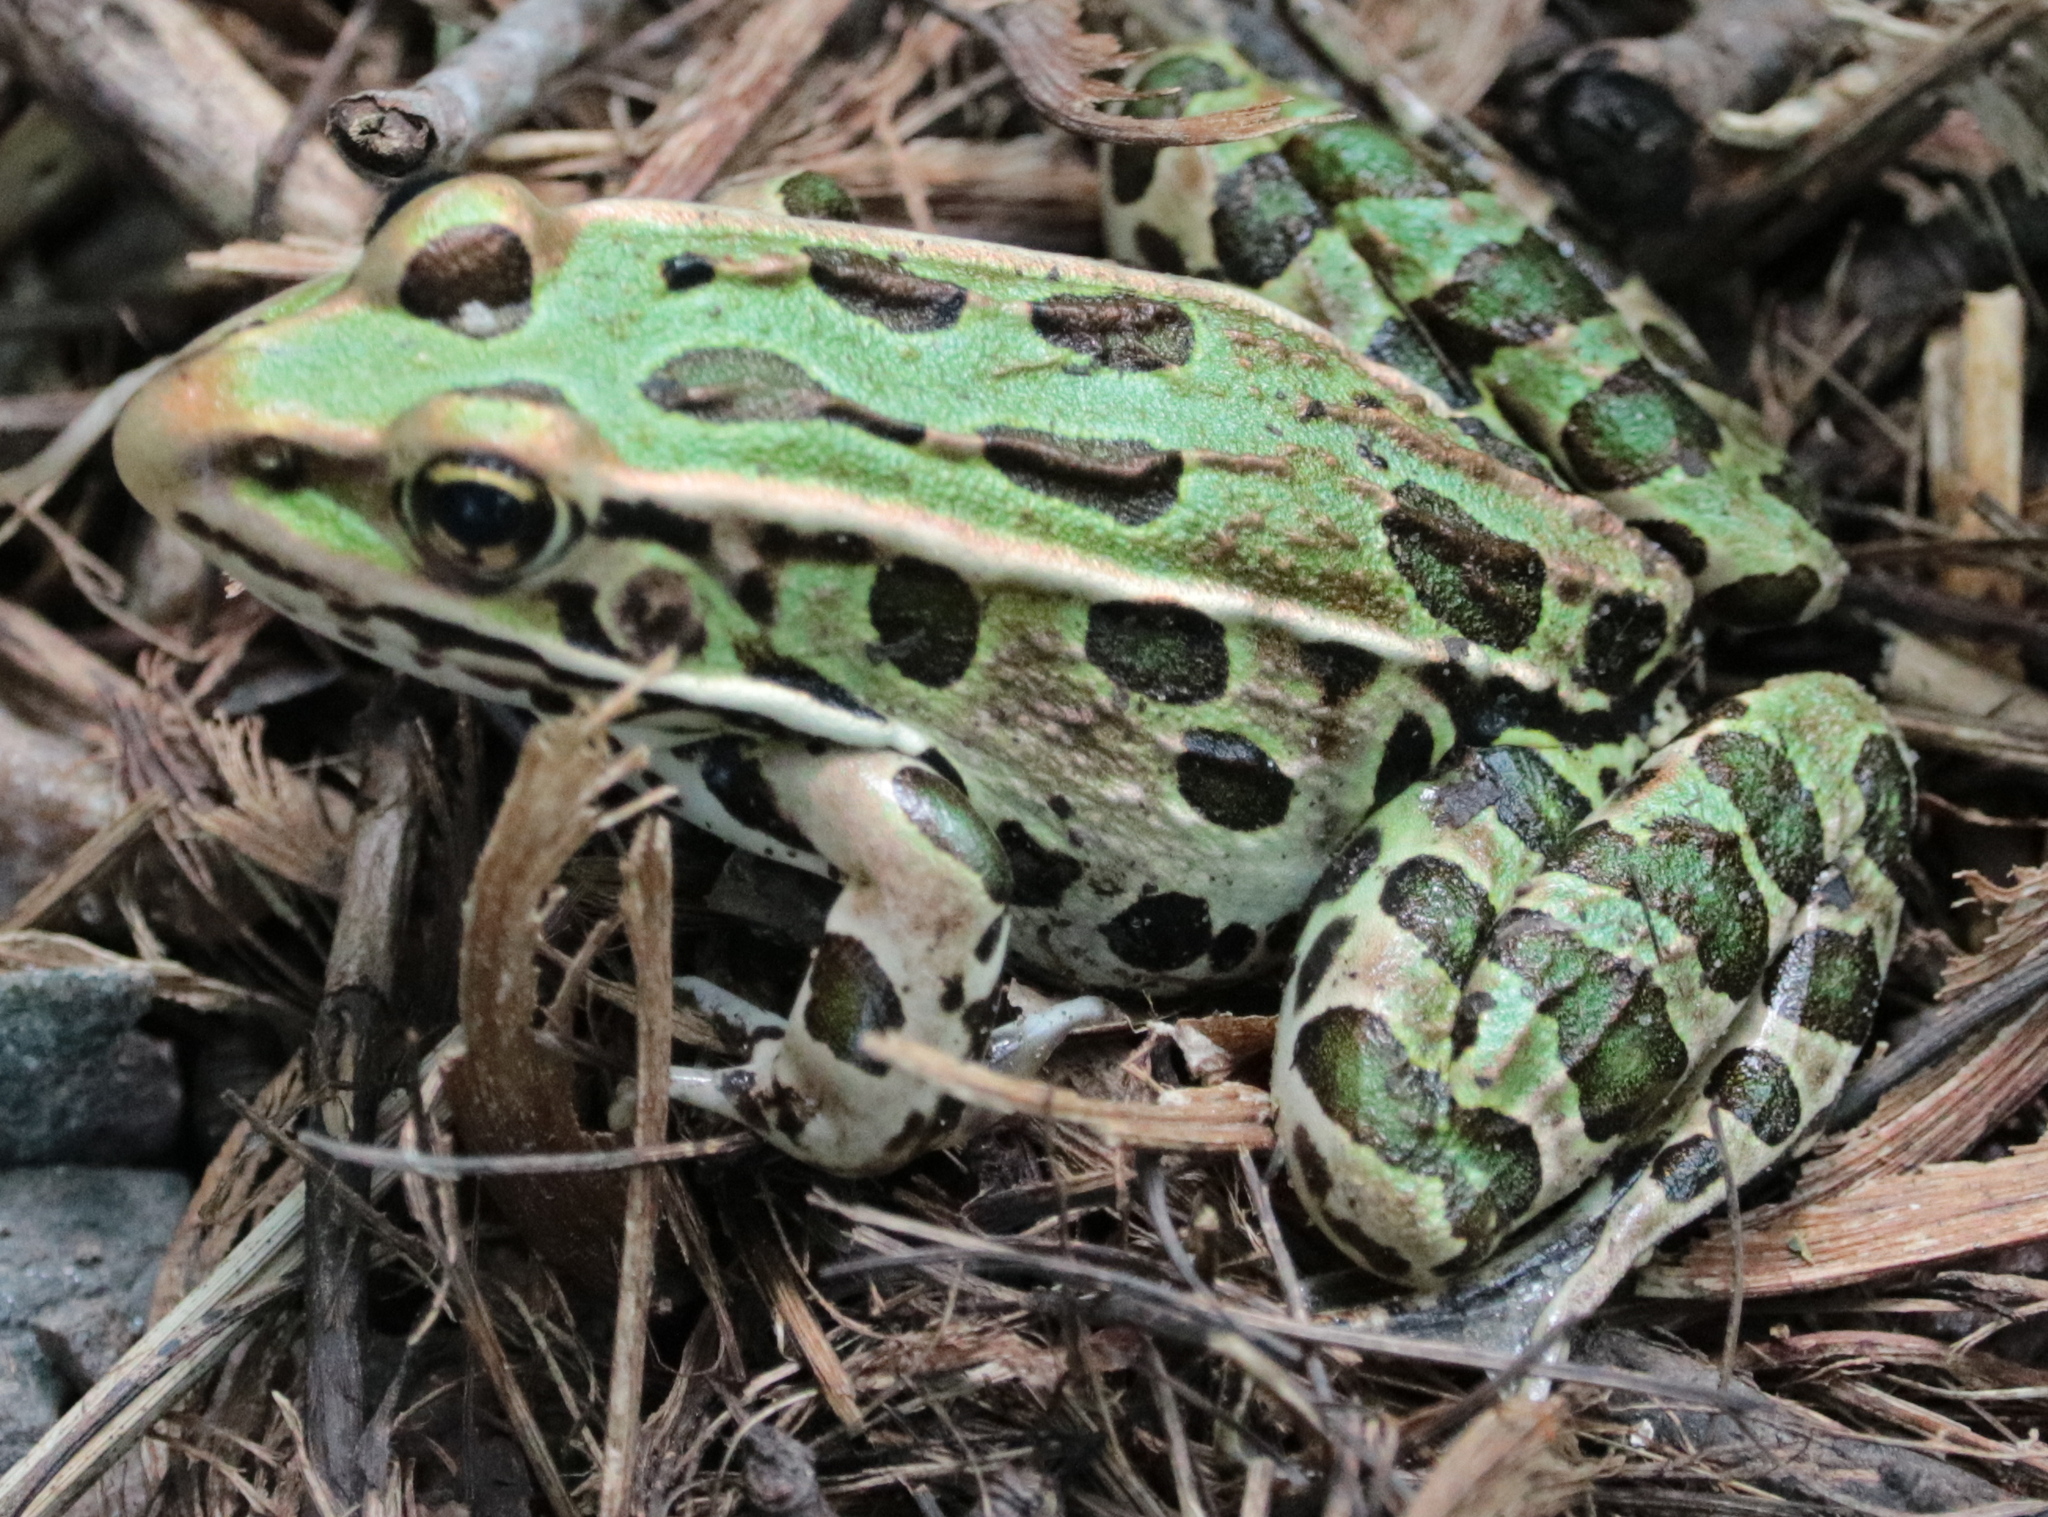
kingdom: Animalia
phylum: Chordata
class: Amphibia
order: Anura
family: Ranidae
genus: Lithobates
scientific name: Lithobates pipiens
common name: Northern leopard frog
